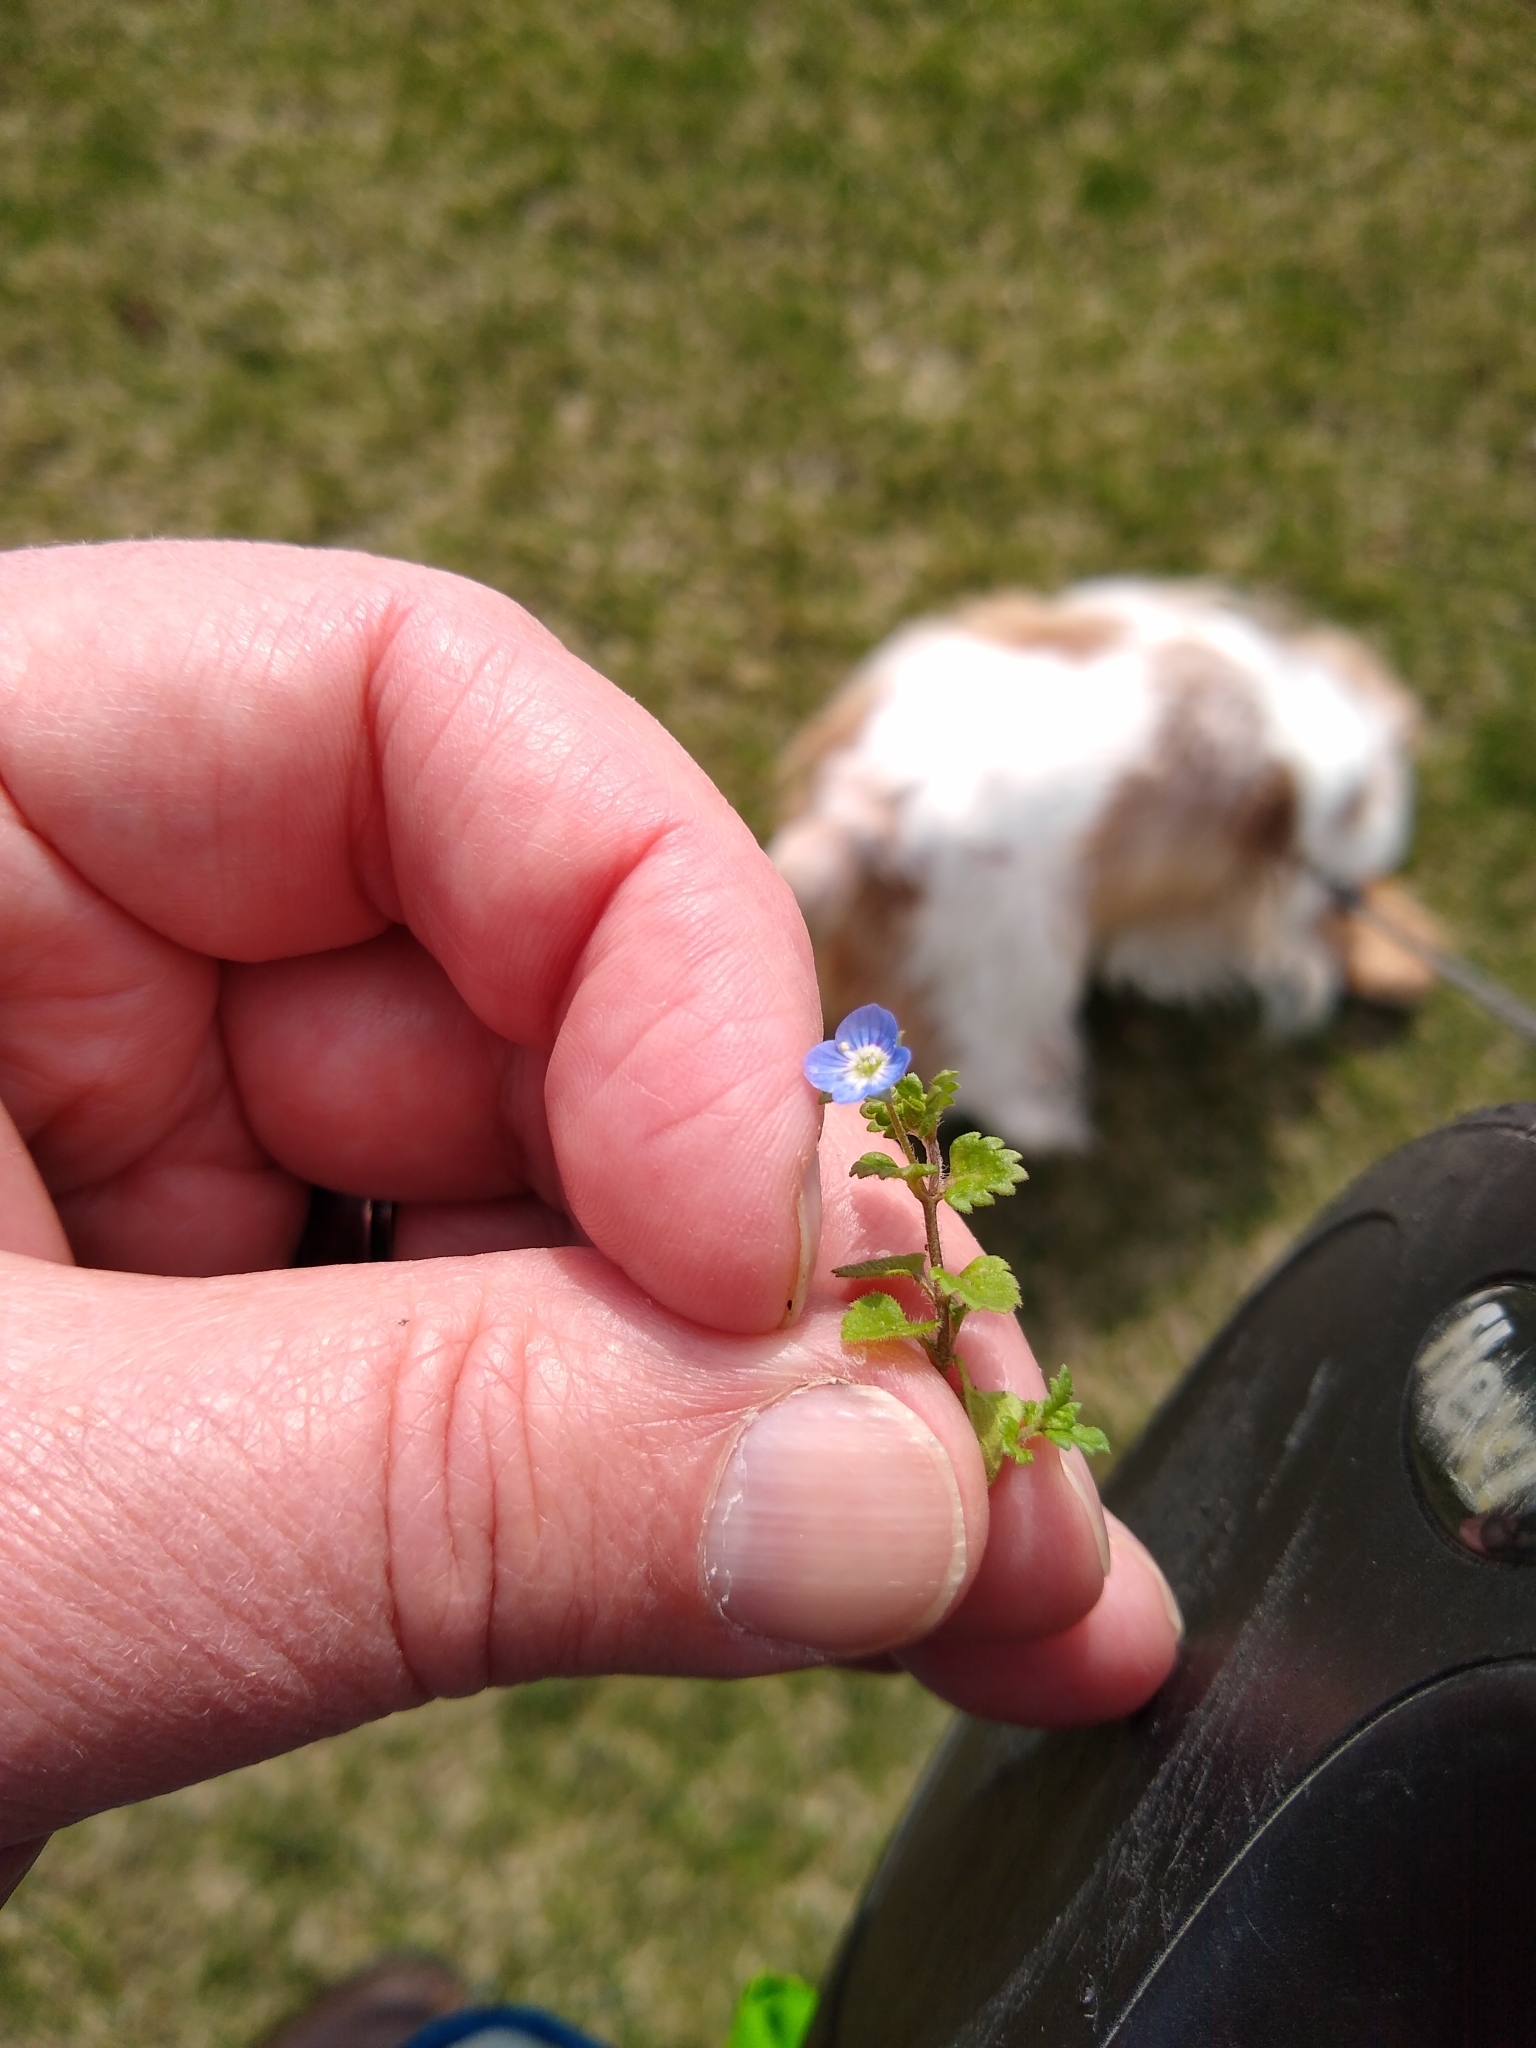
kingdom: Plantae
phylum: Tracheophyta
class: Magnoliopsida
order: Lamiales
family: Plantaginaceae
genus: Veronica
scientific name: Veronica polita
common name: Grey field-speedwell
